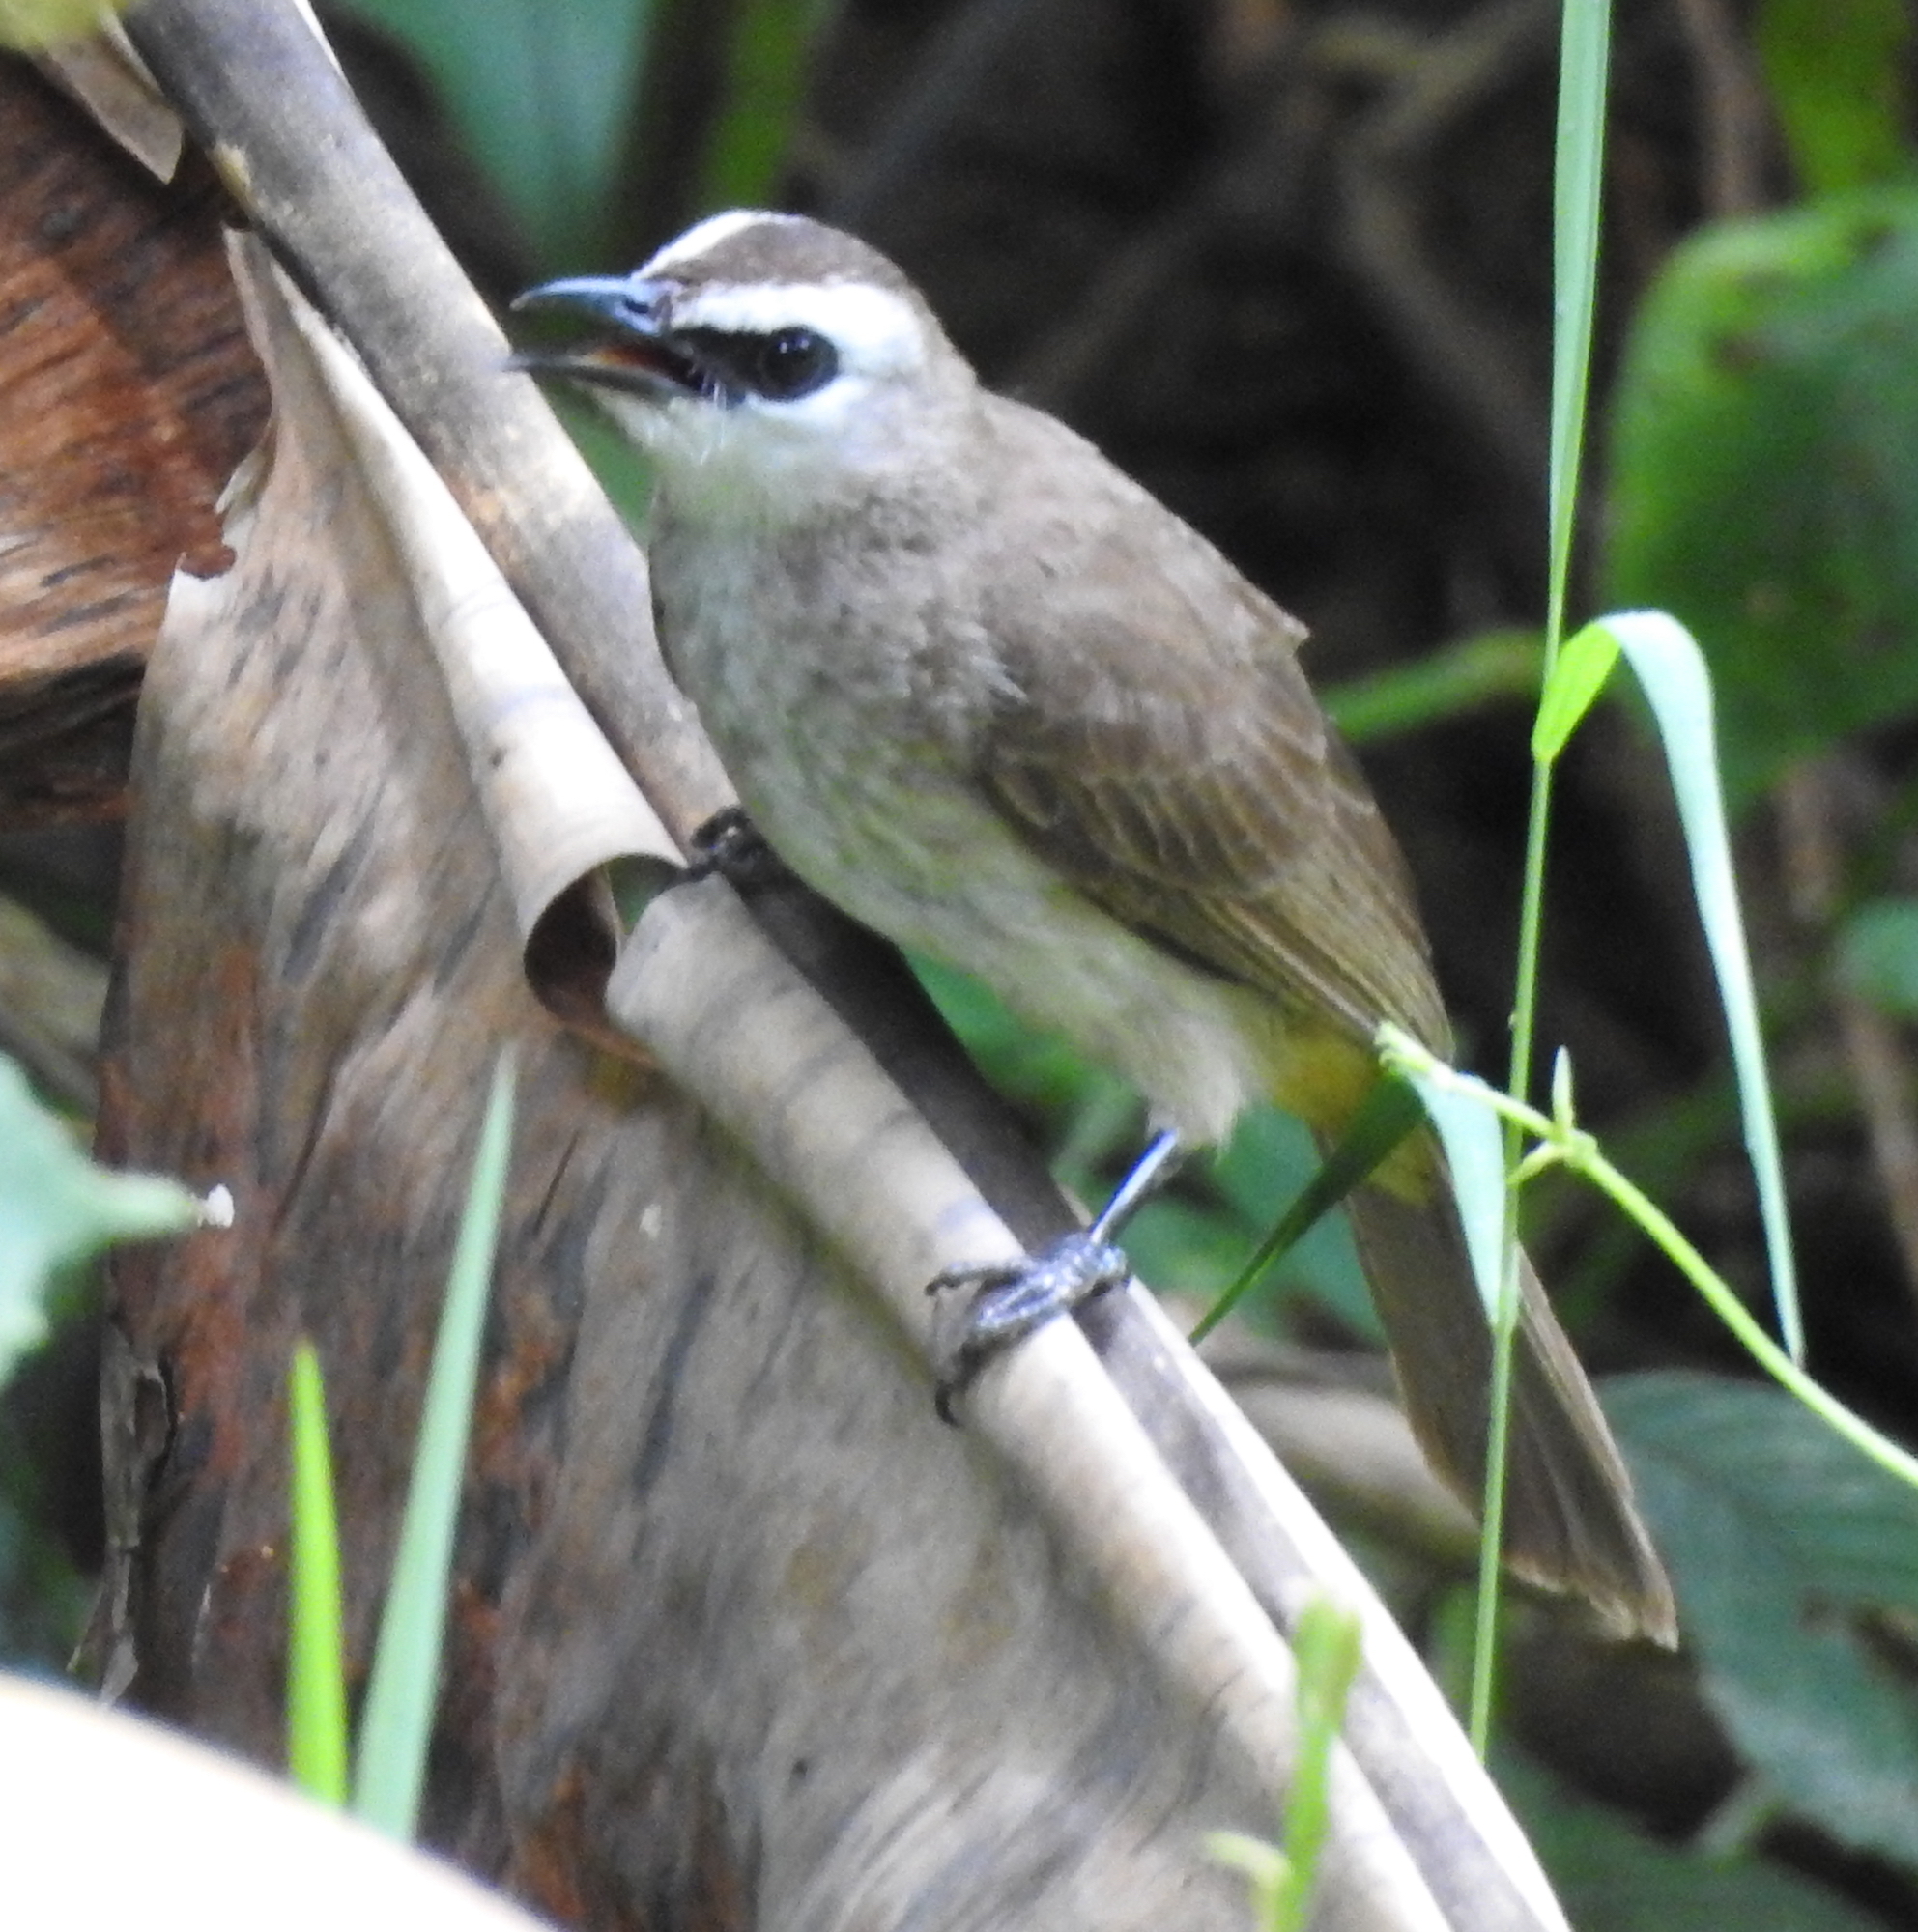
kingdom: Animalia
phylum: Chordata
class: Aves
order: Passeriformes
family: Pycnonotidae
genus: Pycnonotus
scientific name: Pycnonotus goiavier
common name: Yellow-vented bulbul
